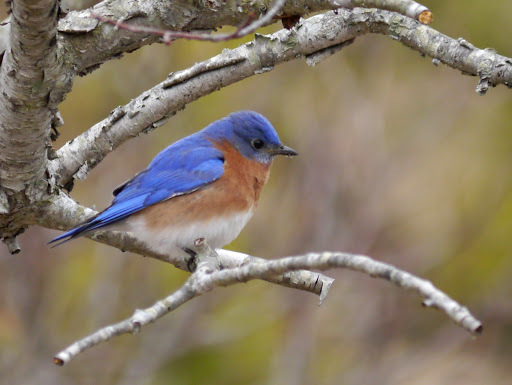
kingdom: Animalia
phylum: Chordata
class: Aves
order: Passeriformes
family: Turdidae
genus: Sialia
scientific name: Sialia sialis
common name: Eastern bluebird
